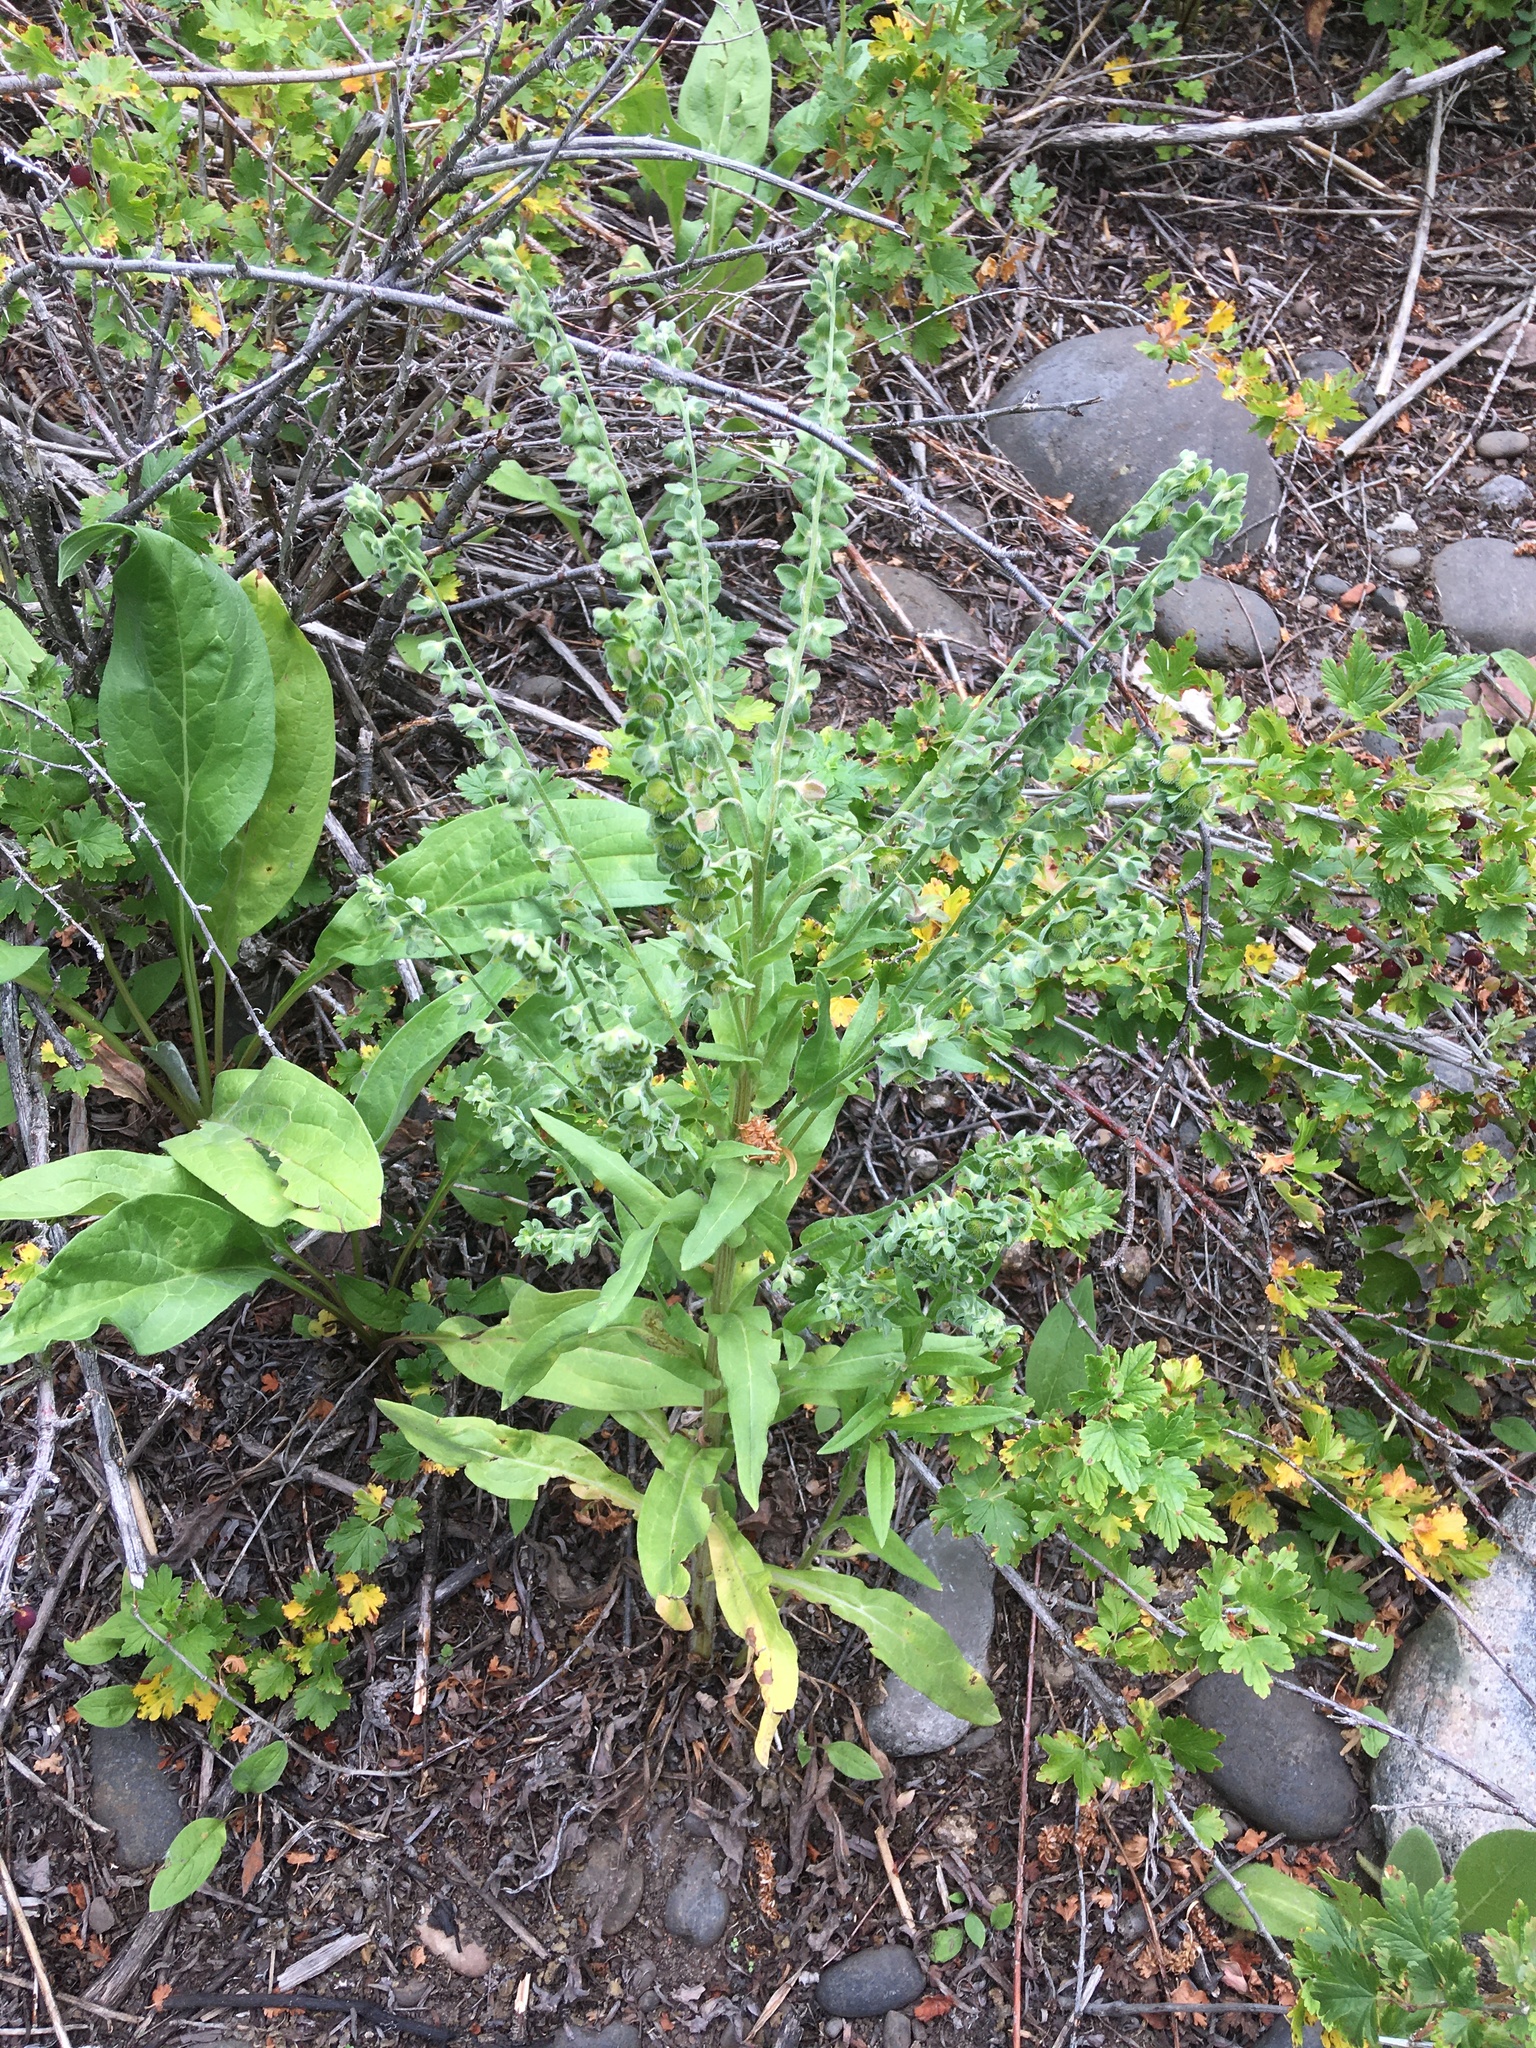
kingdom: Plantae
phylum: Tracheophyta
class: Magnoliopsida
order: Boraginales
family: Boraginaceae
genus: Cynoglossum
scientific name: Cynoglossum officinale
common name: Hound's-tongue
